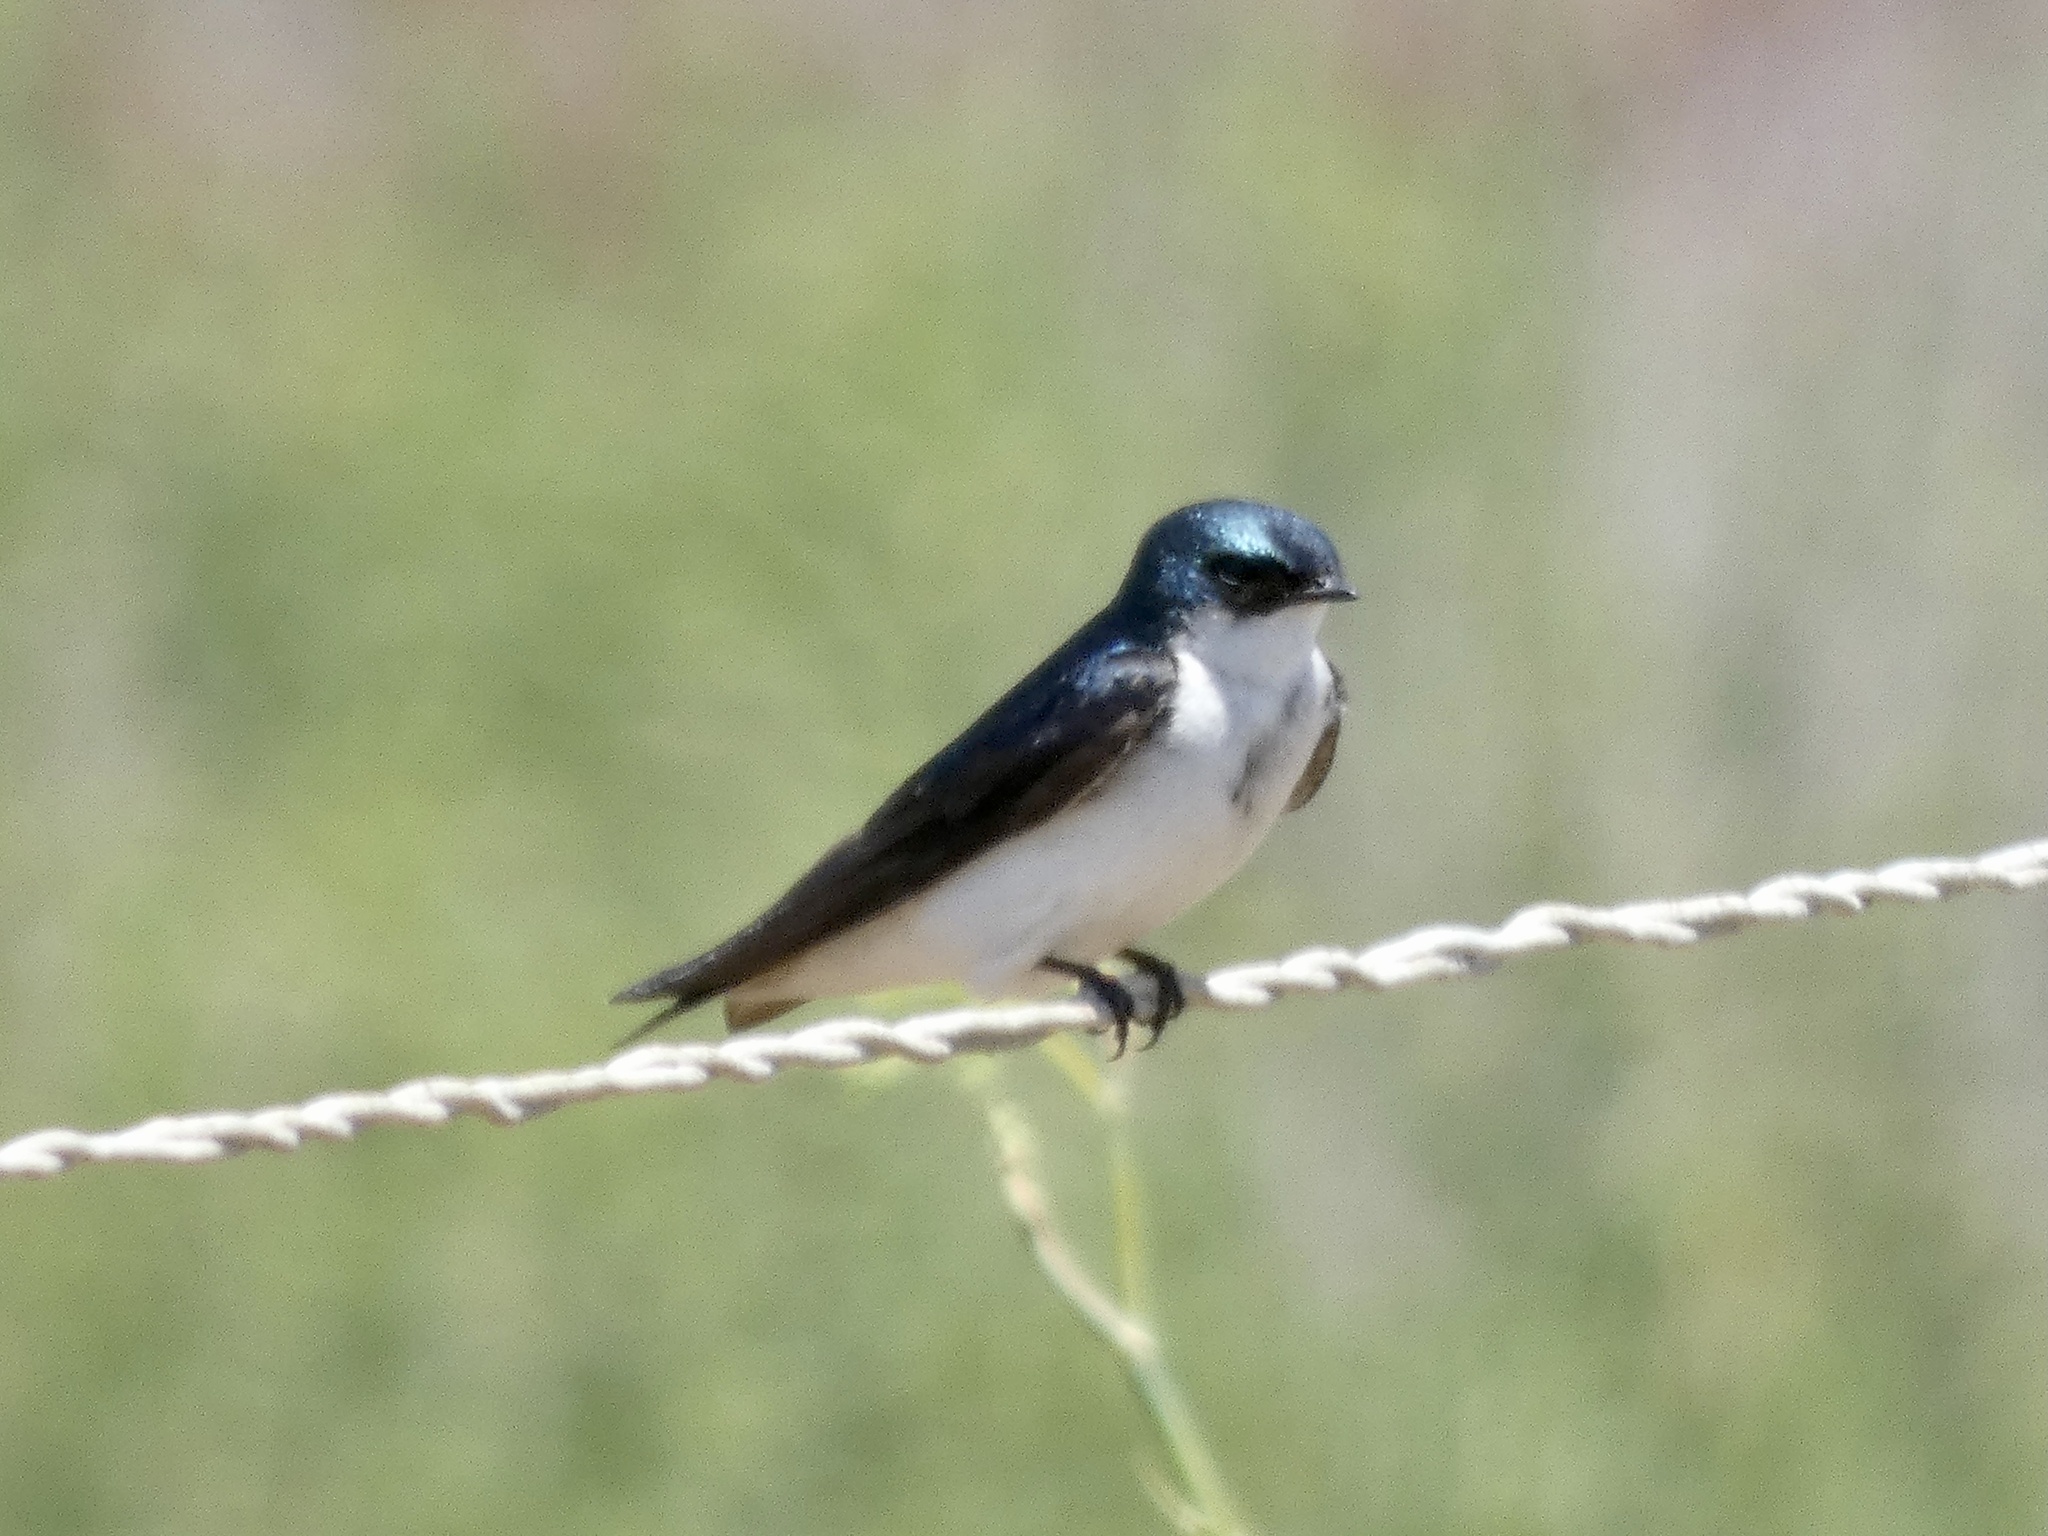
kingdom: Animalia
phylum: Chordata
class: Aves
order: Passeriformes
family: Hirundinidae
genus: Tachycineta
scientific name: Tachycineta bicolor
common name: Tree swallow
